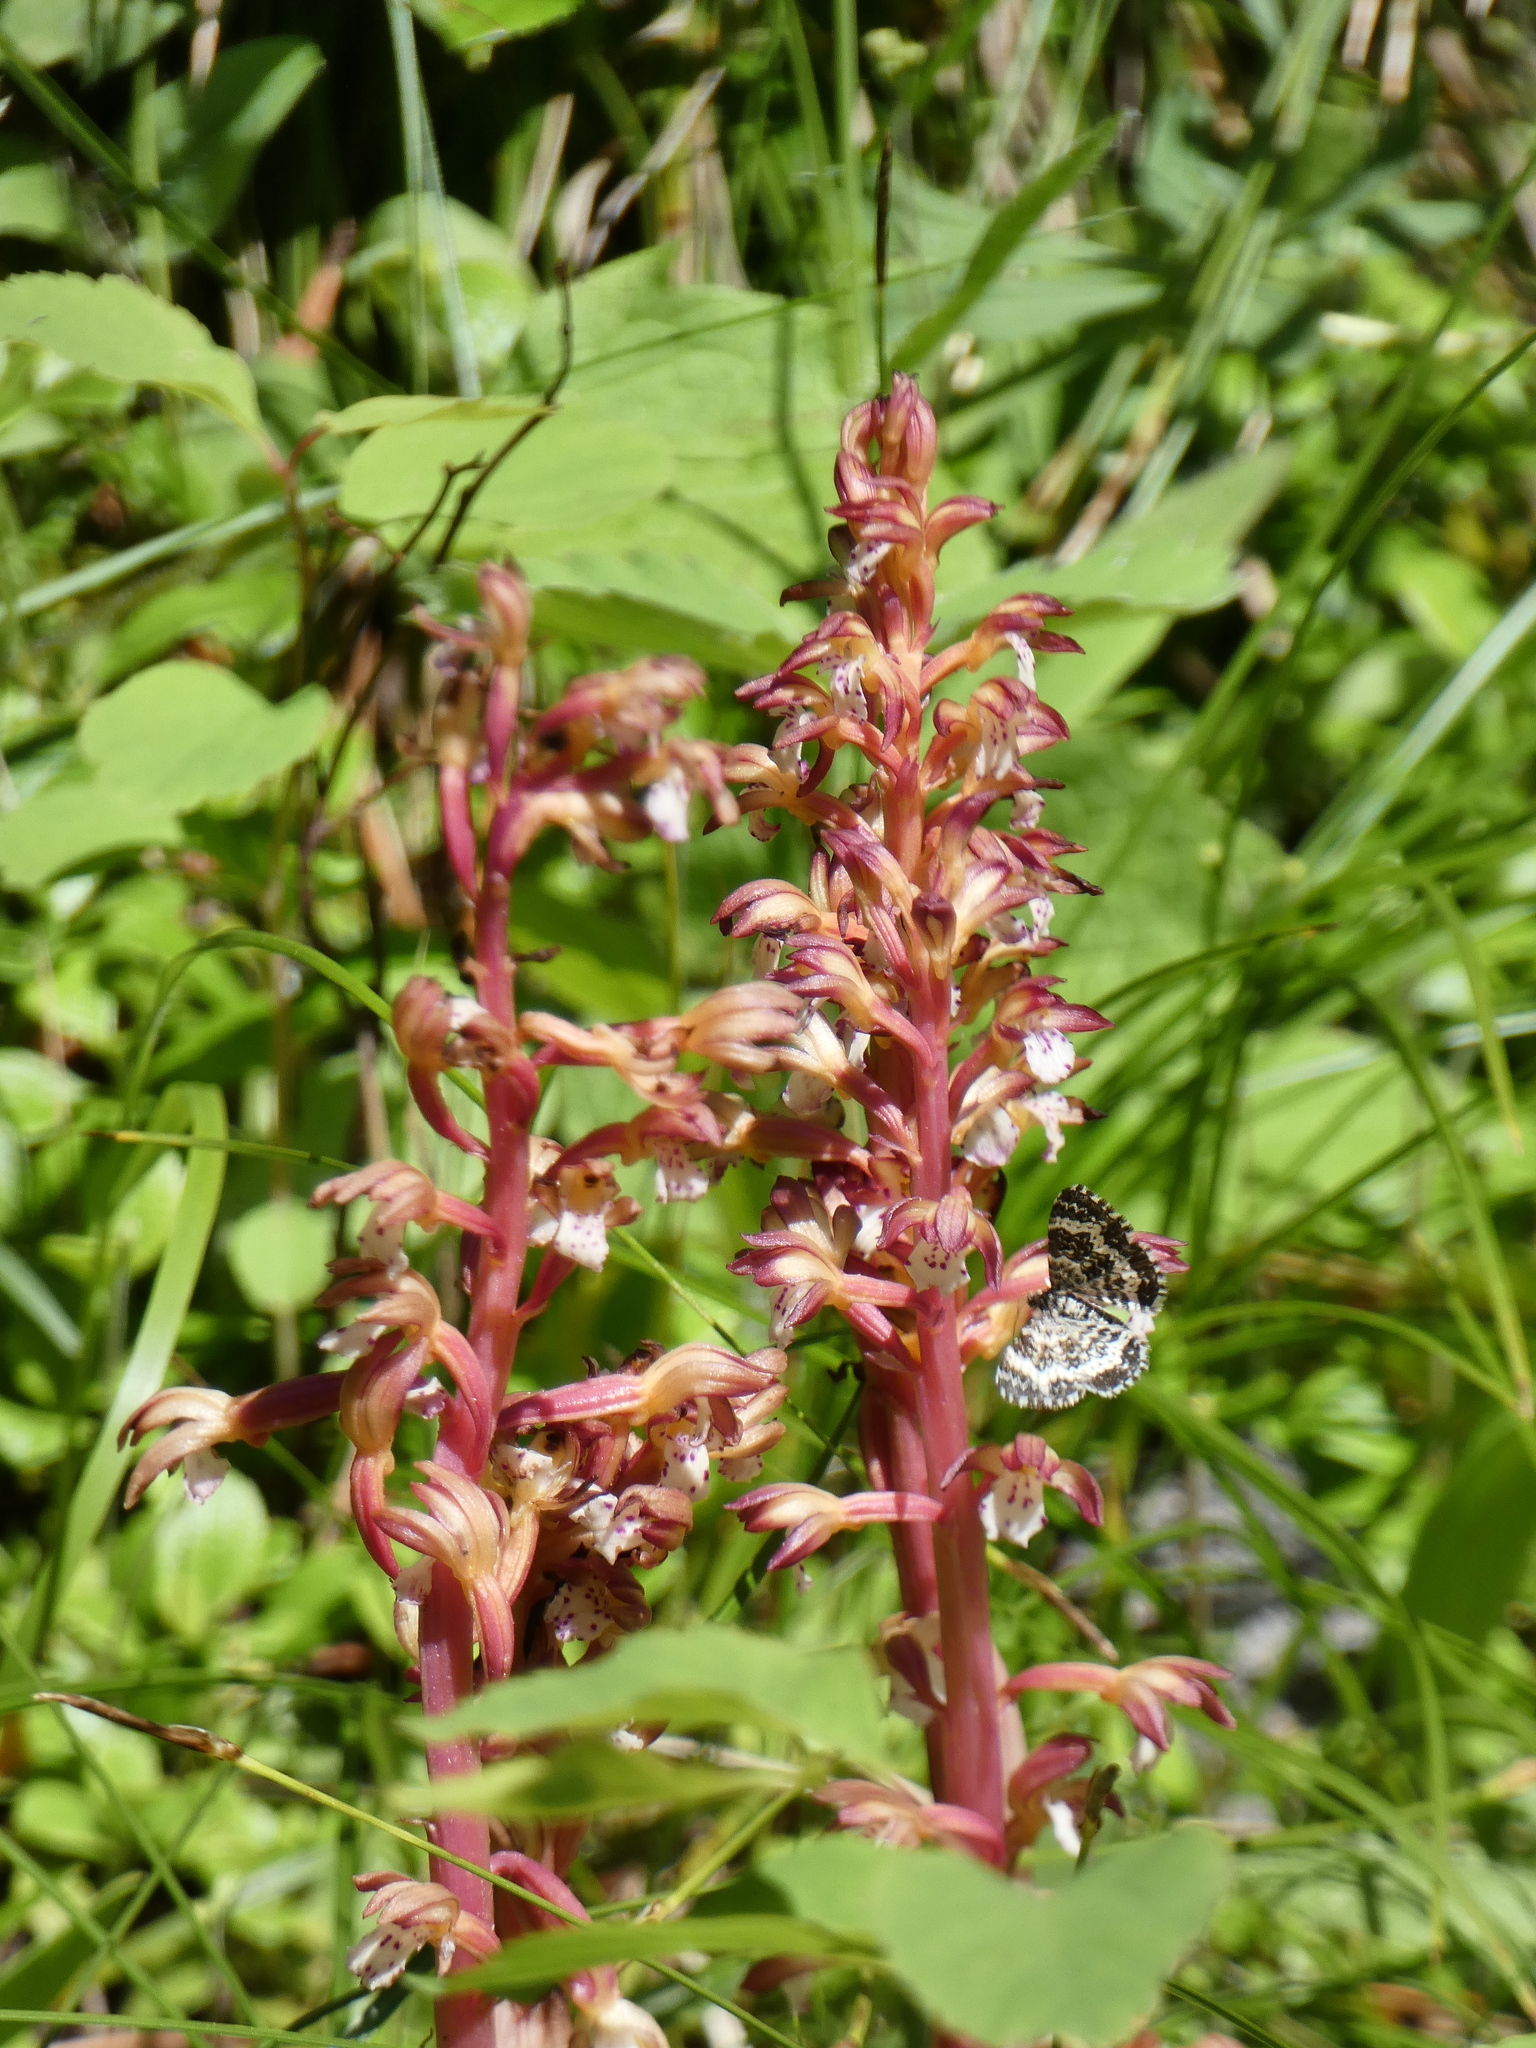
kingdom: Plantae
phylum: Tracheophyta
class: Liliopsida
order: Asparagales
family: Orchidaceae
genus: Corallorhiza
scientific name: Corallorhiza maculata
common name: Spotted coralroot
